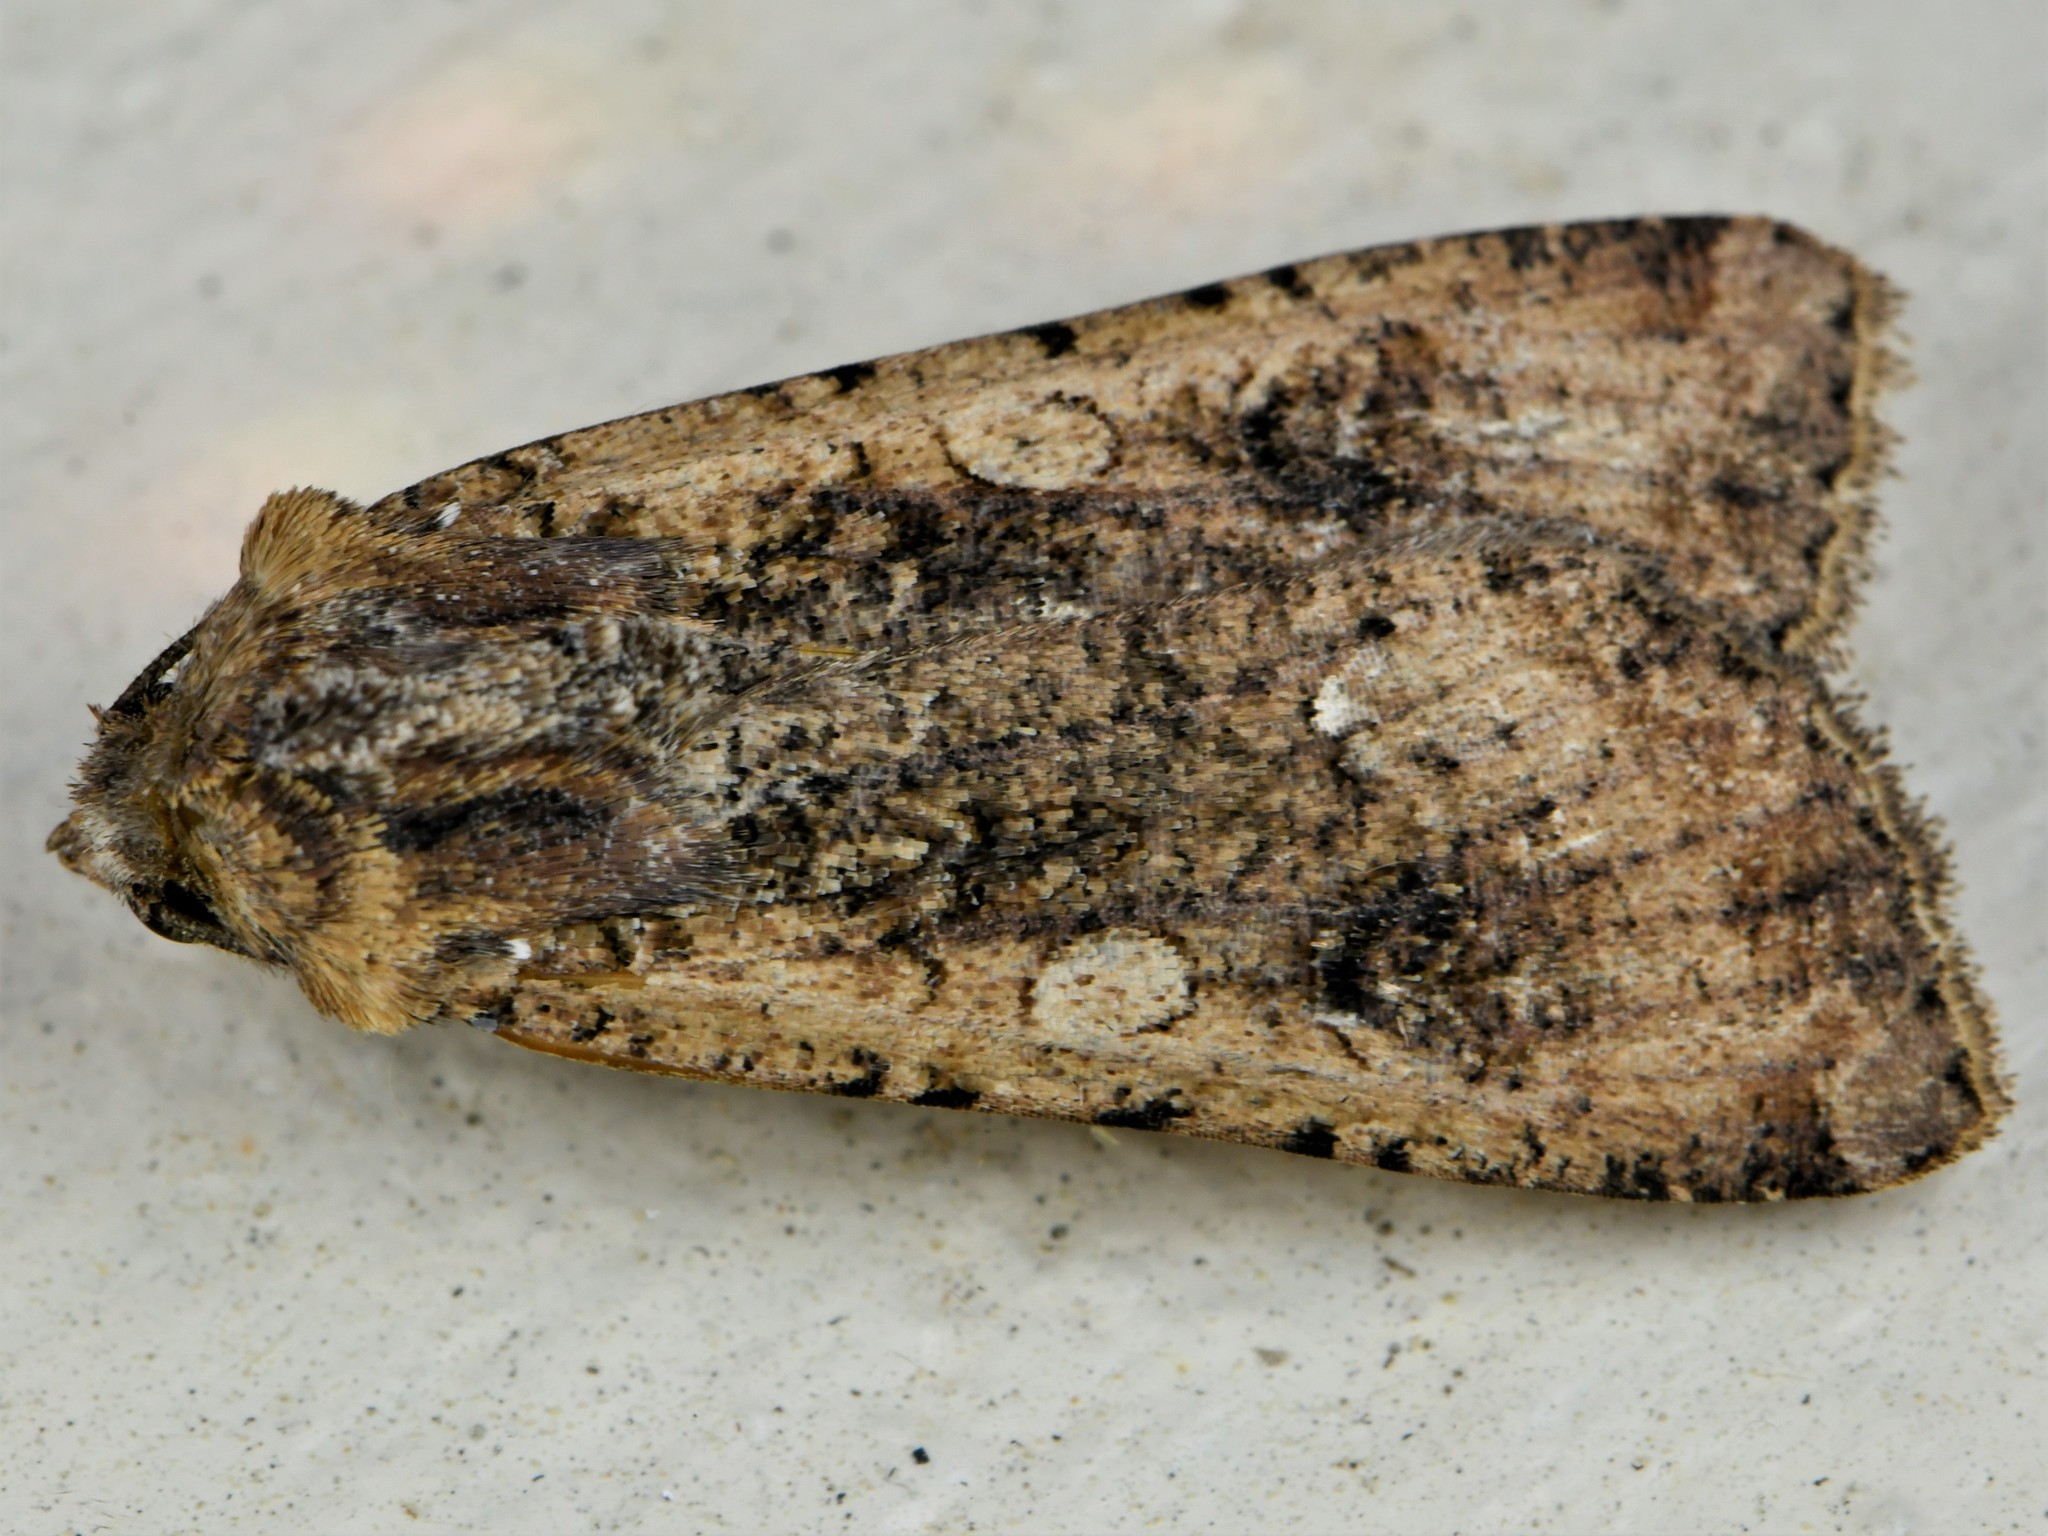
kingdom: Animalia
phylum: Arthropoda
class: Insecta
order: Lepidoptera
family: Noctuidae
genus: Peridroma
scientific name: Peridroma saucia
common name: Pearly underwing
